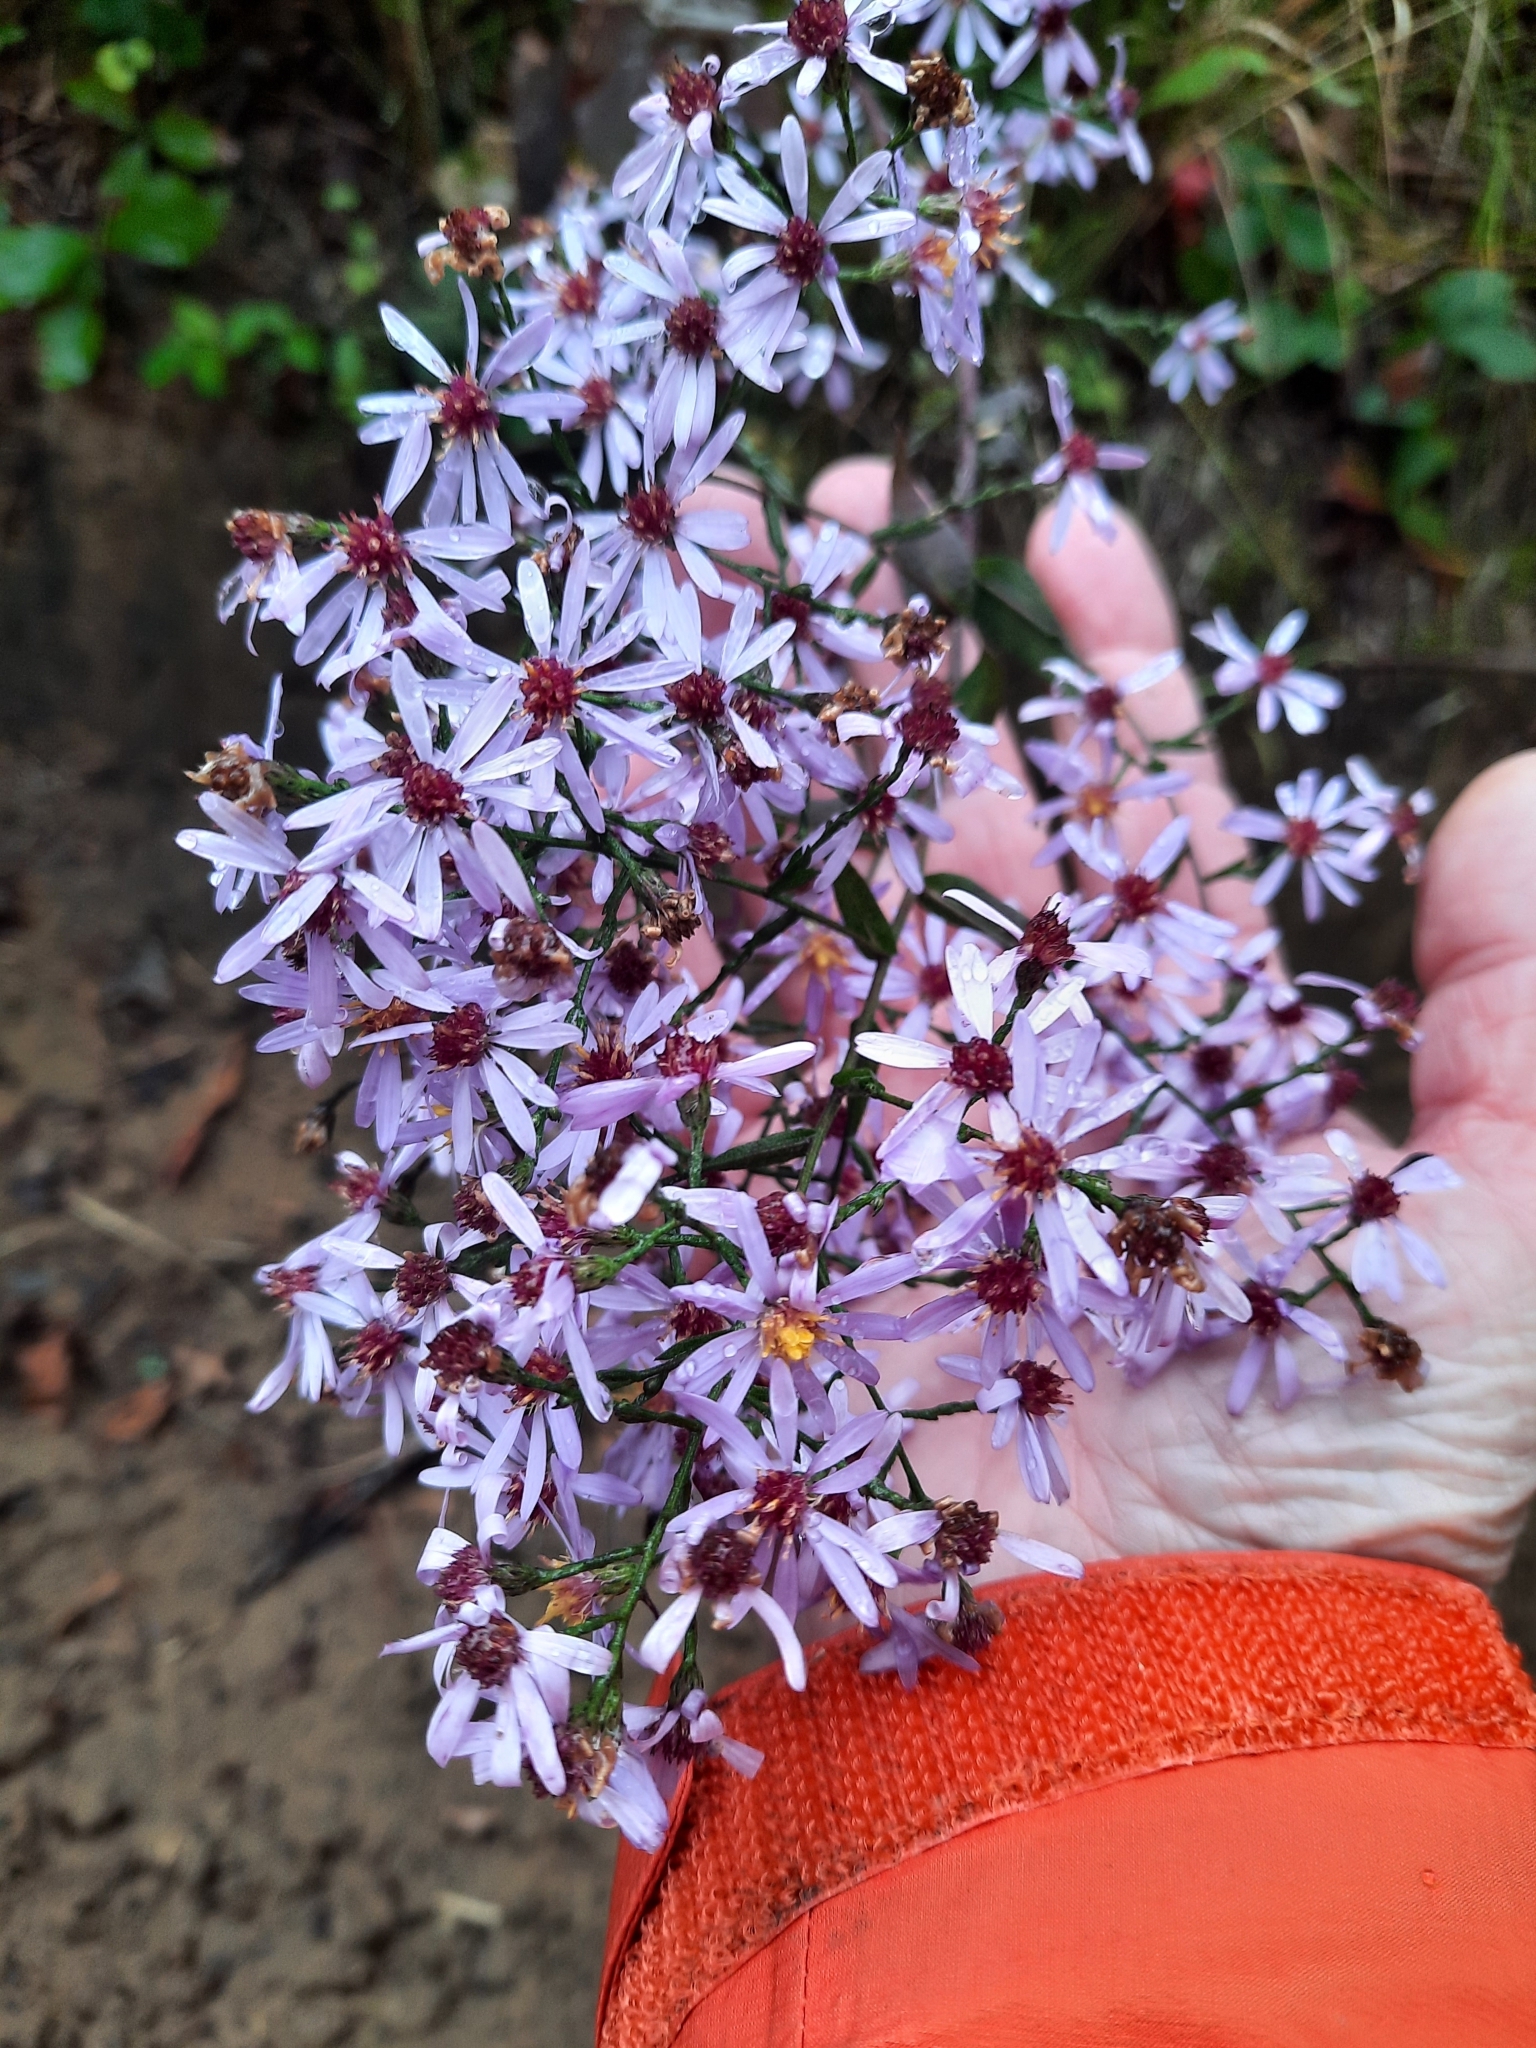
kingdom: Plantae
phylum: Tracheophyta
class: Magnoliopsida
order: Asterales
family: Asteraceae
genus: Symphyotrichum
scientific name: Symphyotrichum cordifolium
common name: Beeweed
